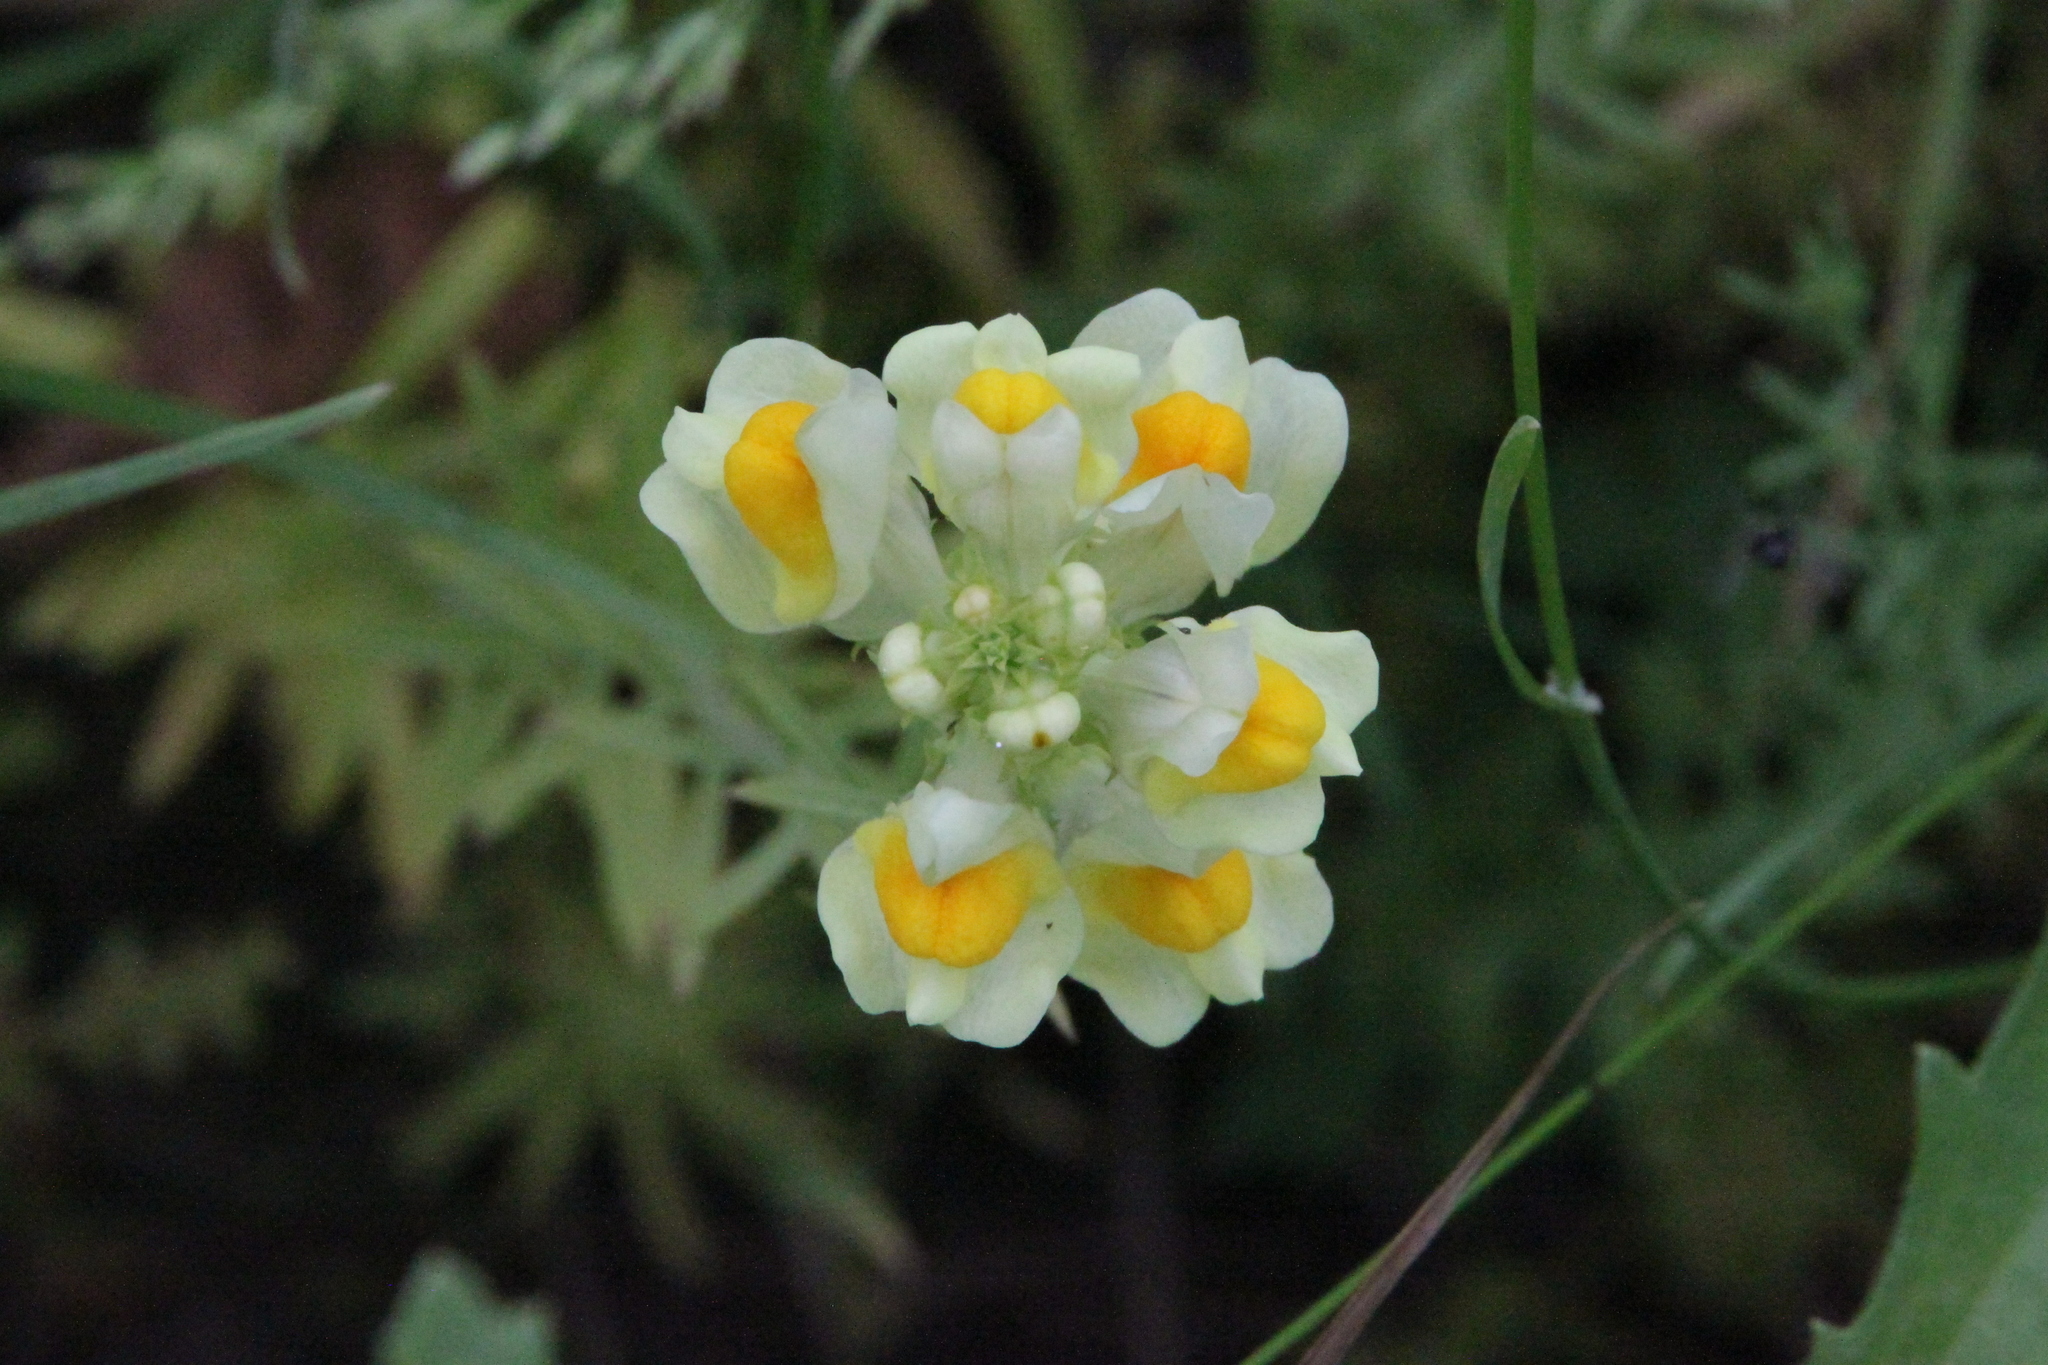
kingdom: Plantae
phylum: Tracheophyta
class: Magnoliopsida
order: Lamiales
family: Plantaginaceae
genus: Linaria
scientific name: Linaria vulgaris
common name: Butter and eggs
